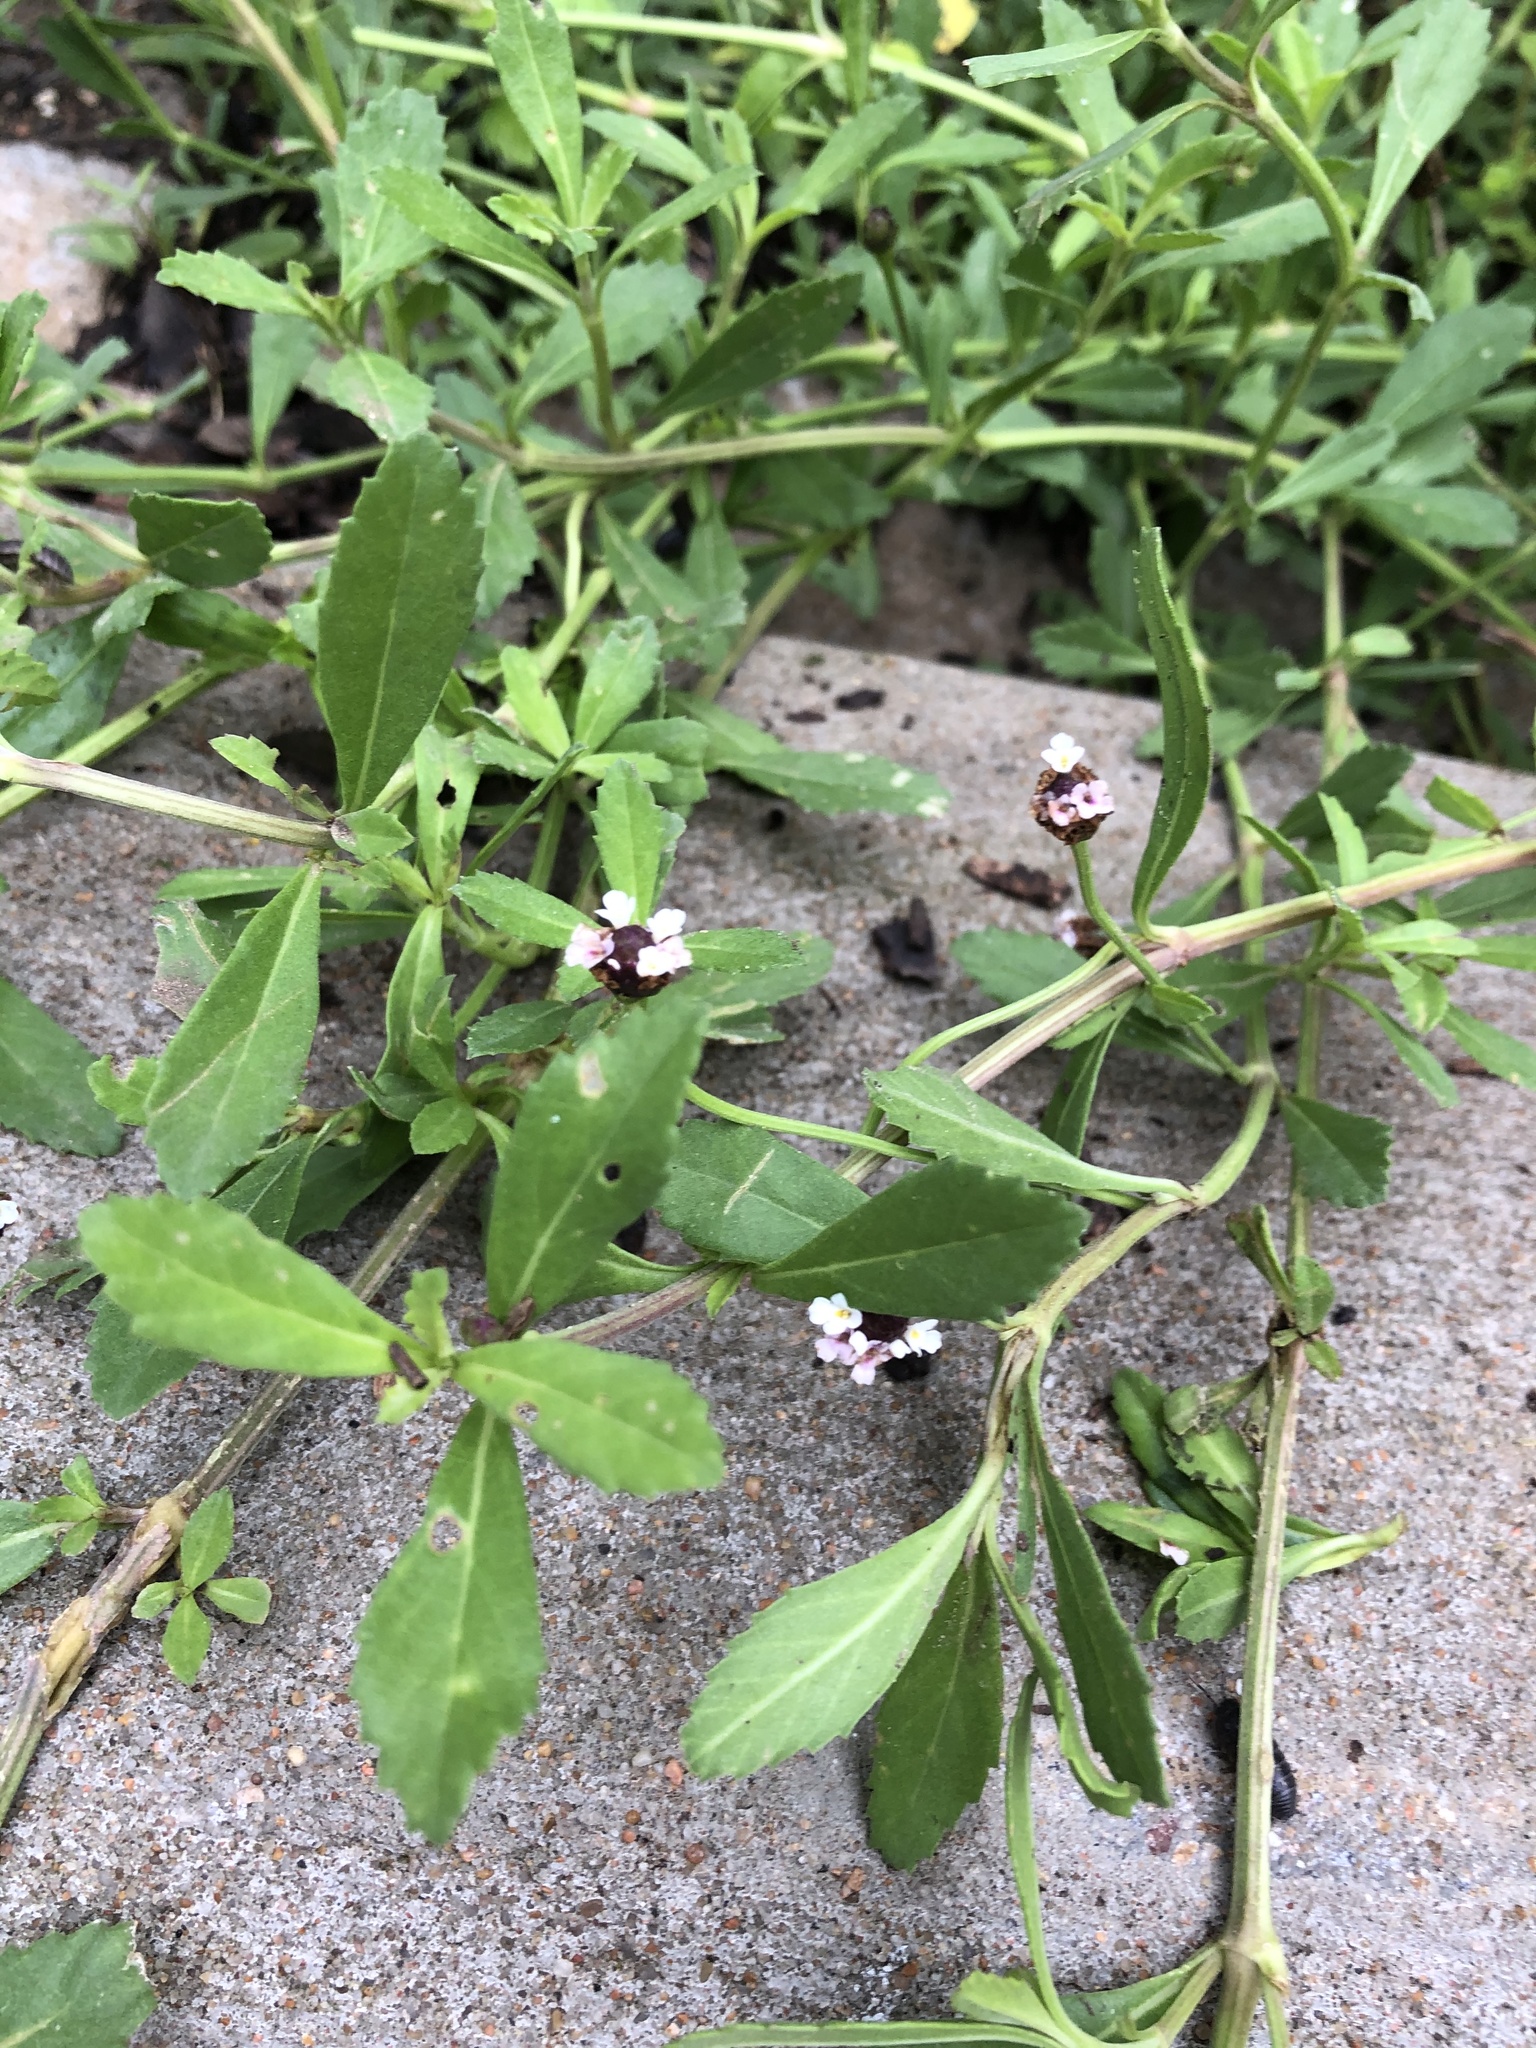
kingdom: Plantae
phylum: Tracheophyta
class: Magnoliopsida
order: Lamiales
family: Verbenaceae
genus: Phyla
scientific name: Phyla nodiflora
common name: Frogfruit
